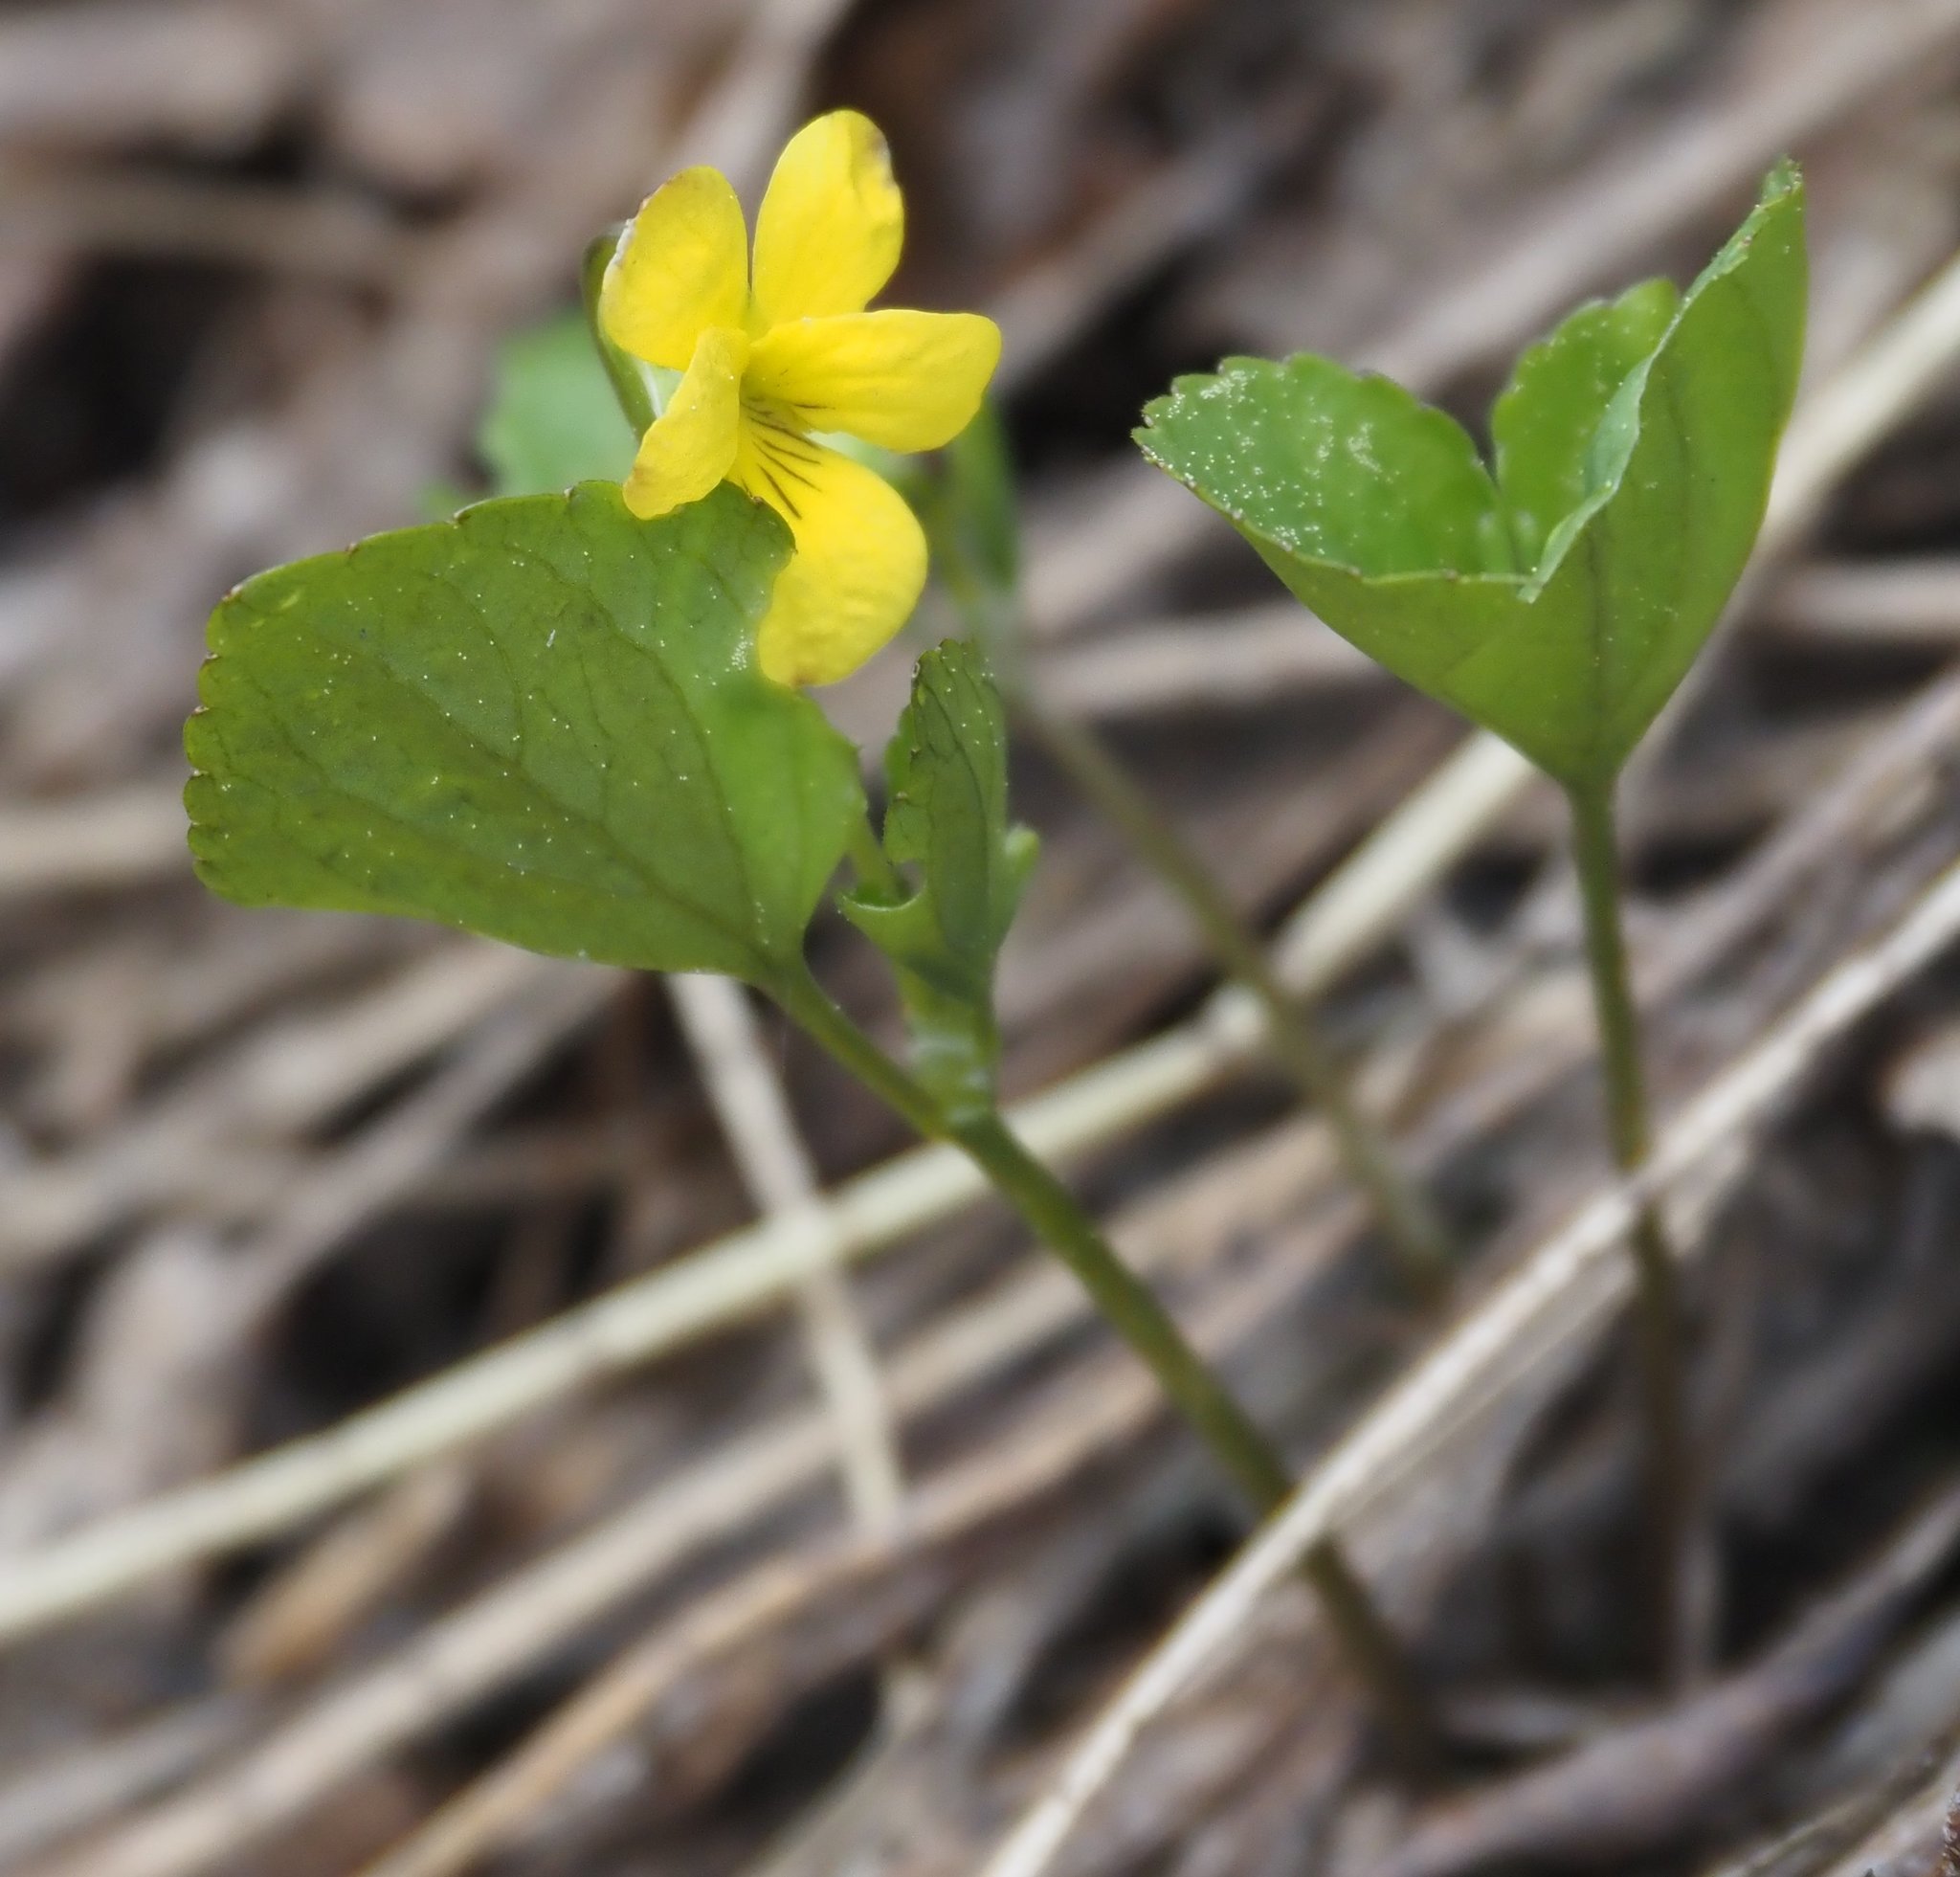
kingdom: Plantae
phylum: Tracheophyta
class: Magnoliopsida
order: Malpighiales
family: Violaceae
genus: Viola
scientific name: Viola glabella
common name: Stream violet
